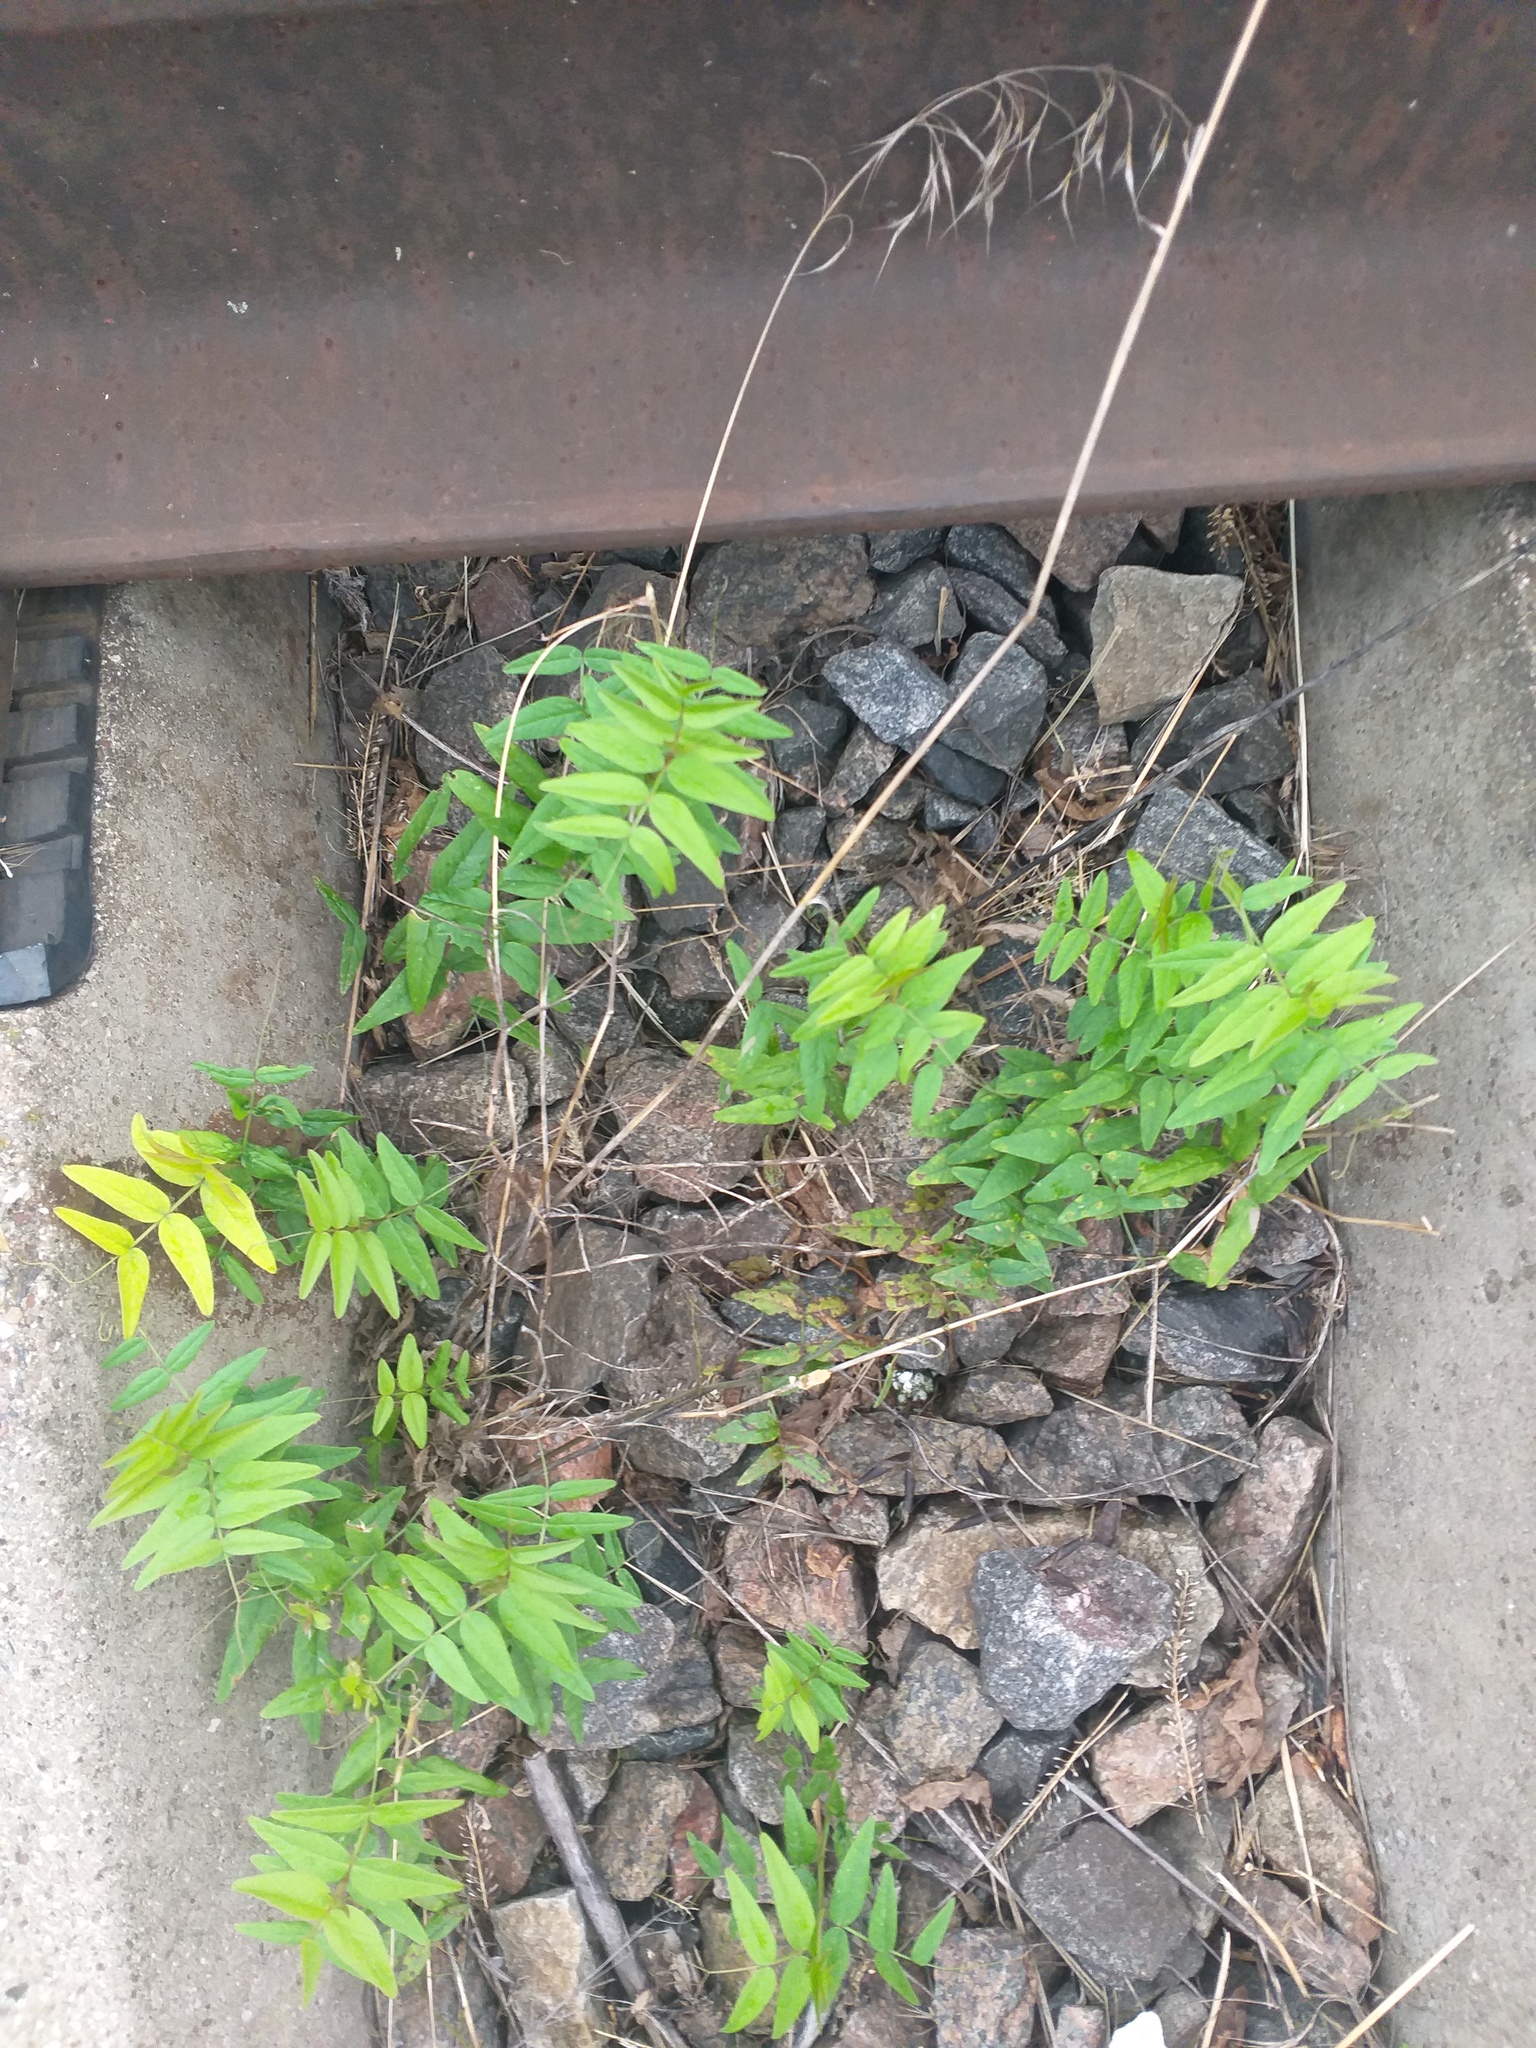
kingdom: Plantae
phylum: Tracheophyta
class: Magnoliopsida
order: Fabales
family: Fabaceae
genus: Vicia
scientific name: Vicia sepium
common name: Bush vetch
